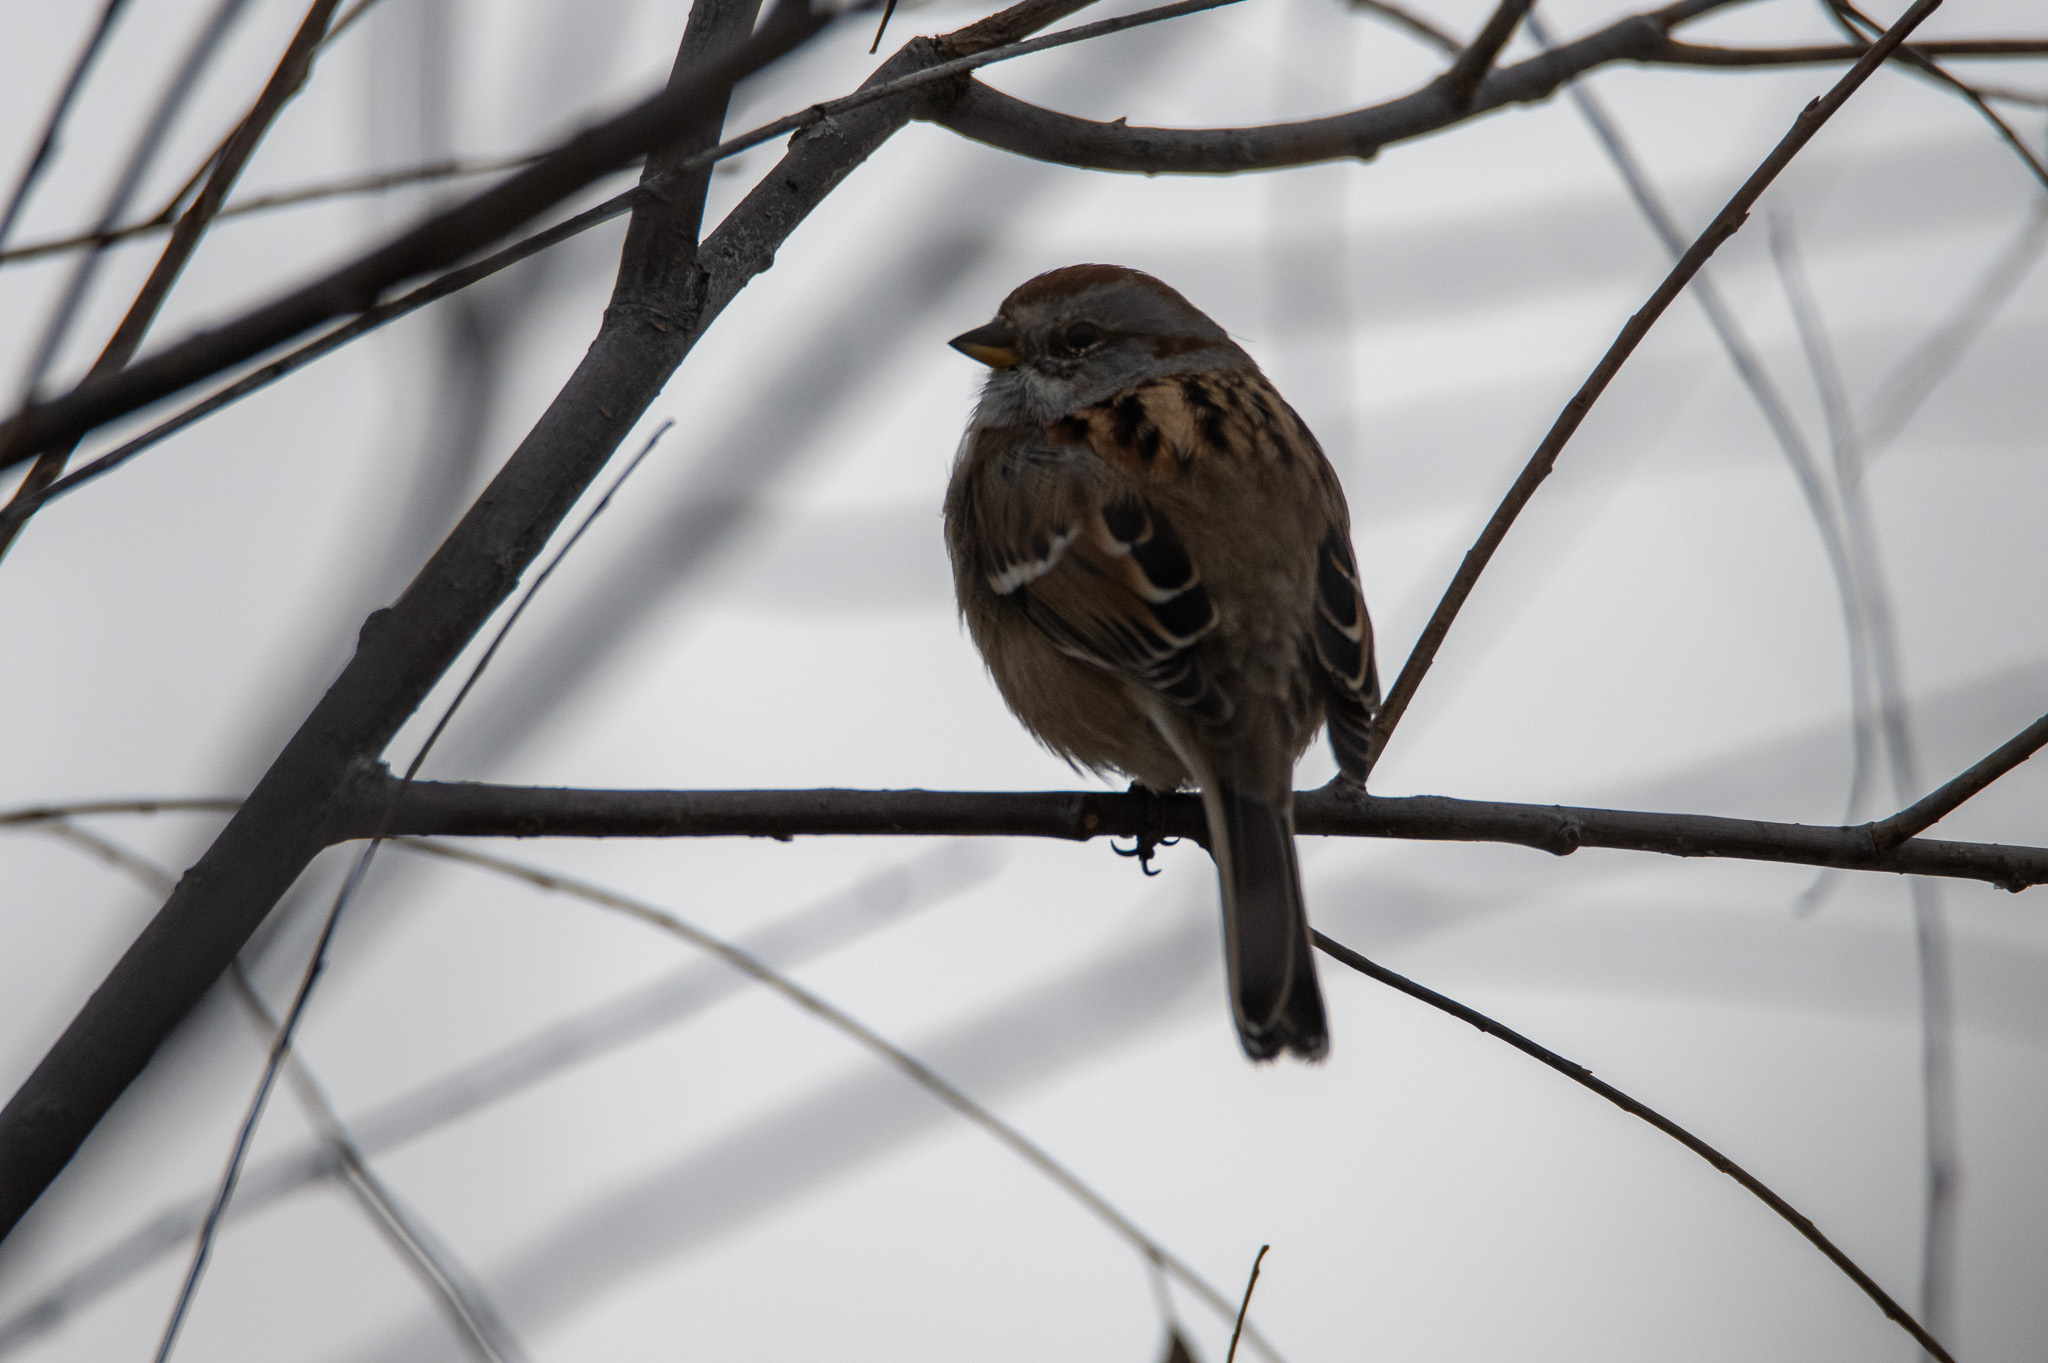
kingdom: Animalia
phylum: Chordata
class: Aves
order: Passeriformes
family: Passerellidae
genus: Spizelloides
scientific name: Spizelloides arborea
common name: American tree sparrow
